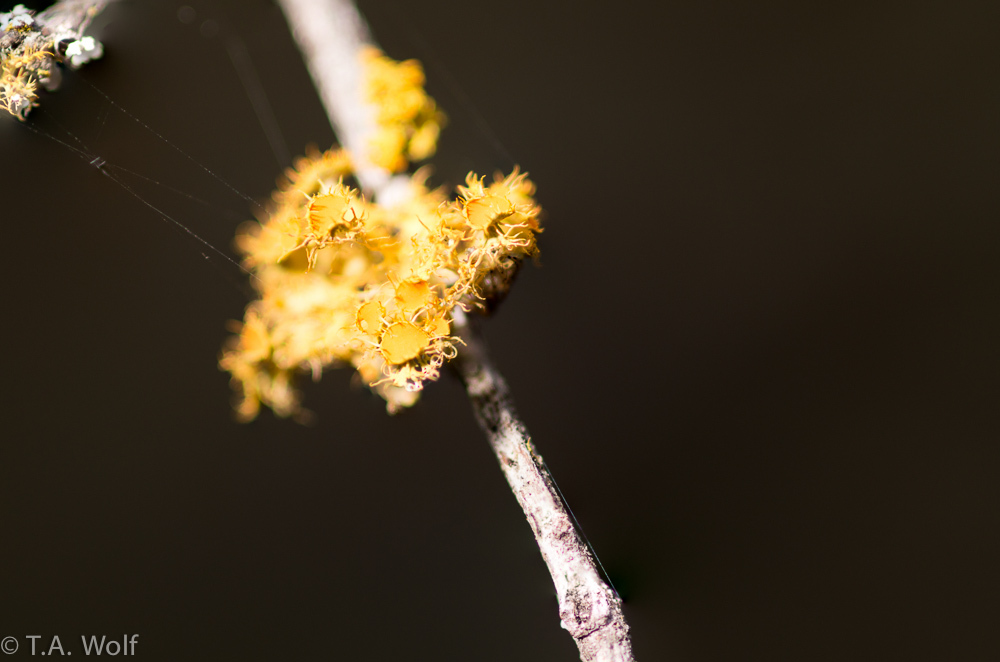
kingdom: Fungi
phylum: Ascomycota
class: Lecanoromycetes
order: Teloschistales
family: Teloschistaceae
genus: Niorma
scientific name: Niorma chrysophthalma
